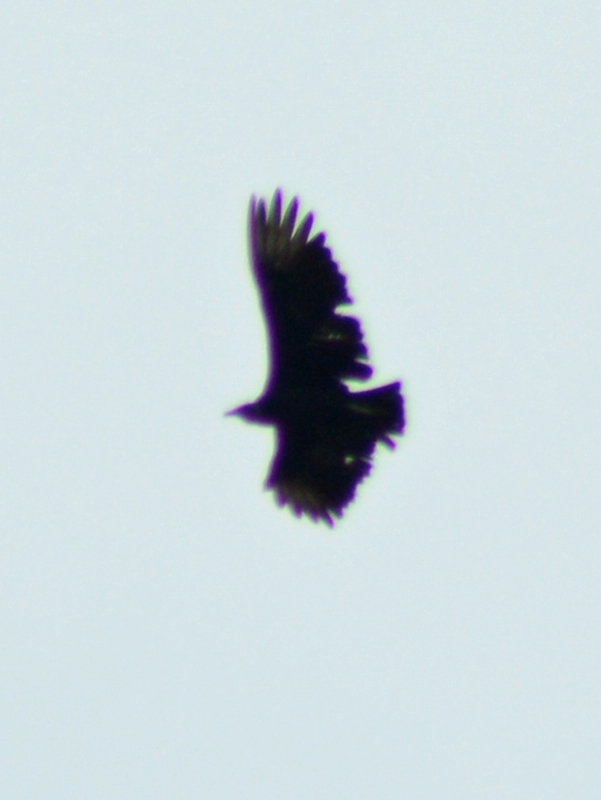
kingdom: Animalia
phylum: Chordata
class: Aves
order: Accipitriformes
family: Cathartidae
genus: Coragyps
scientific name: Coragyps atratus
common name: Black vulture
